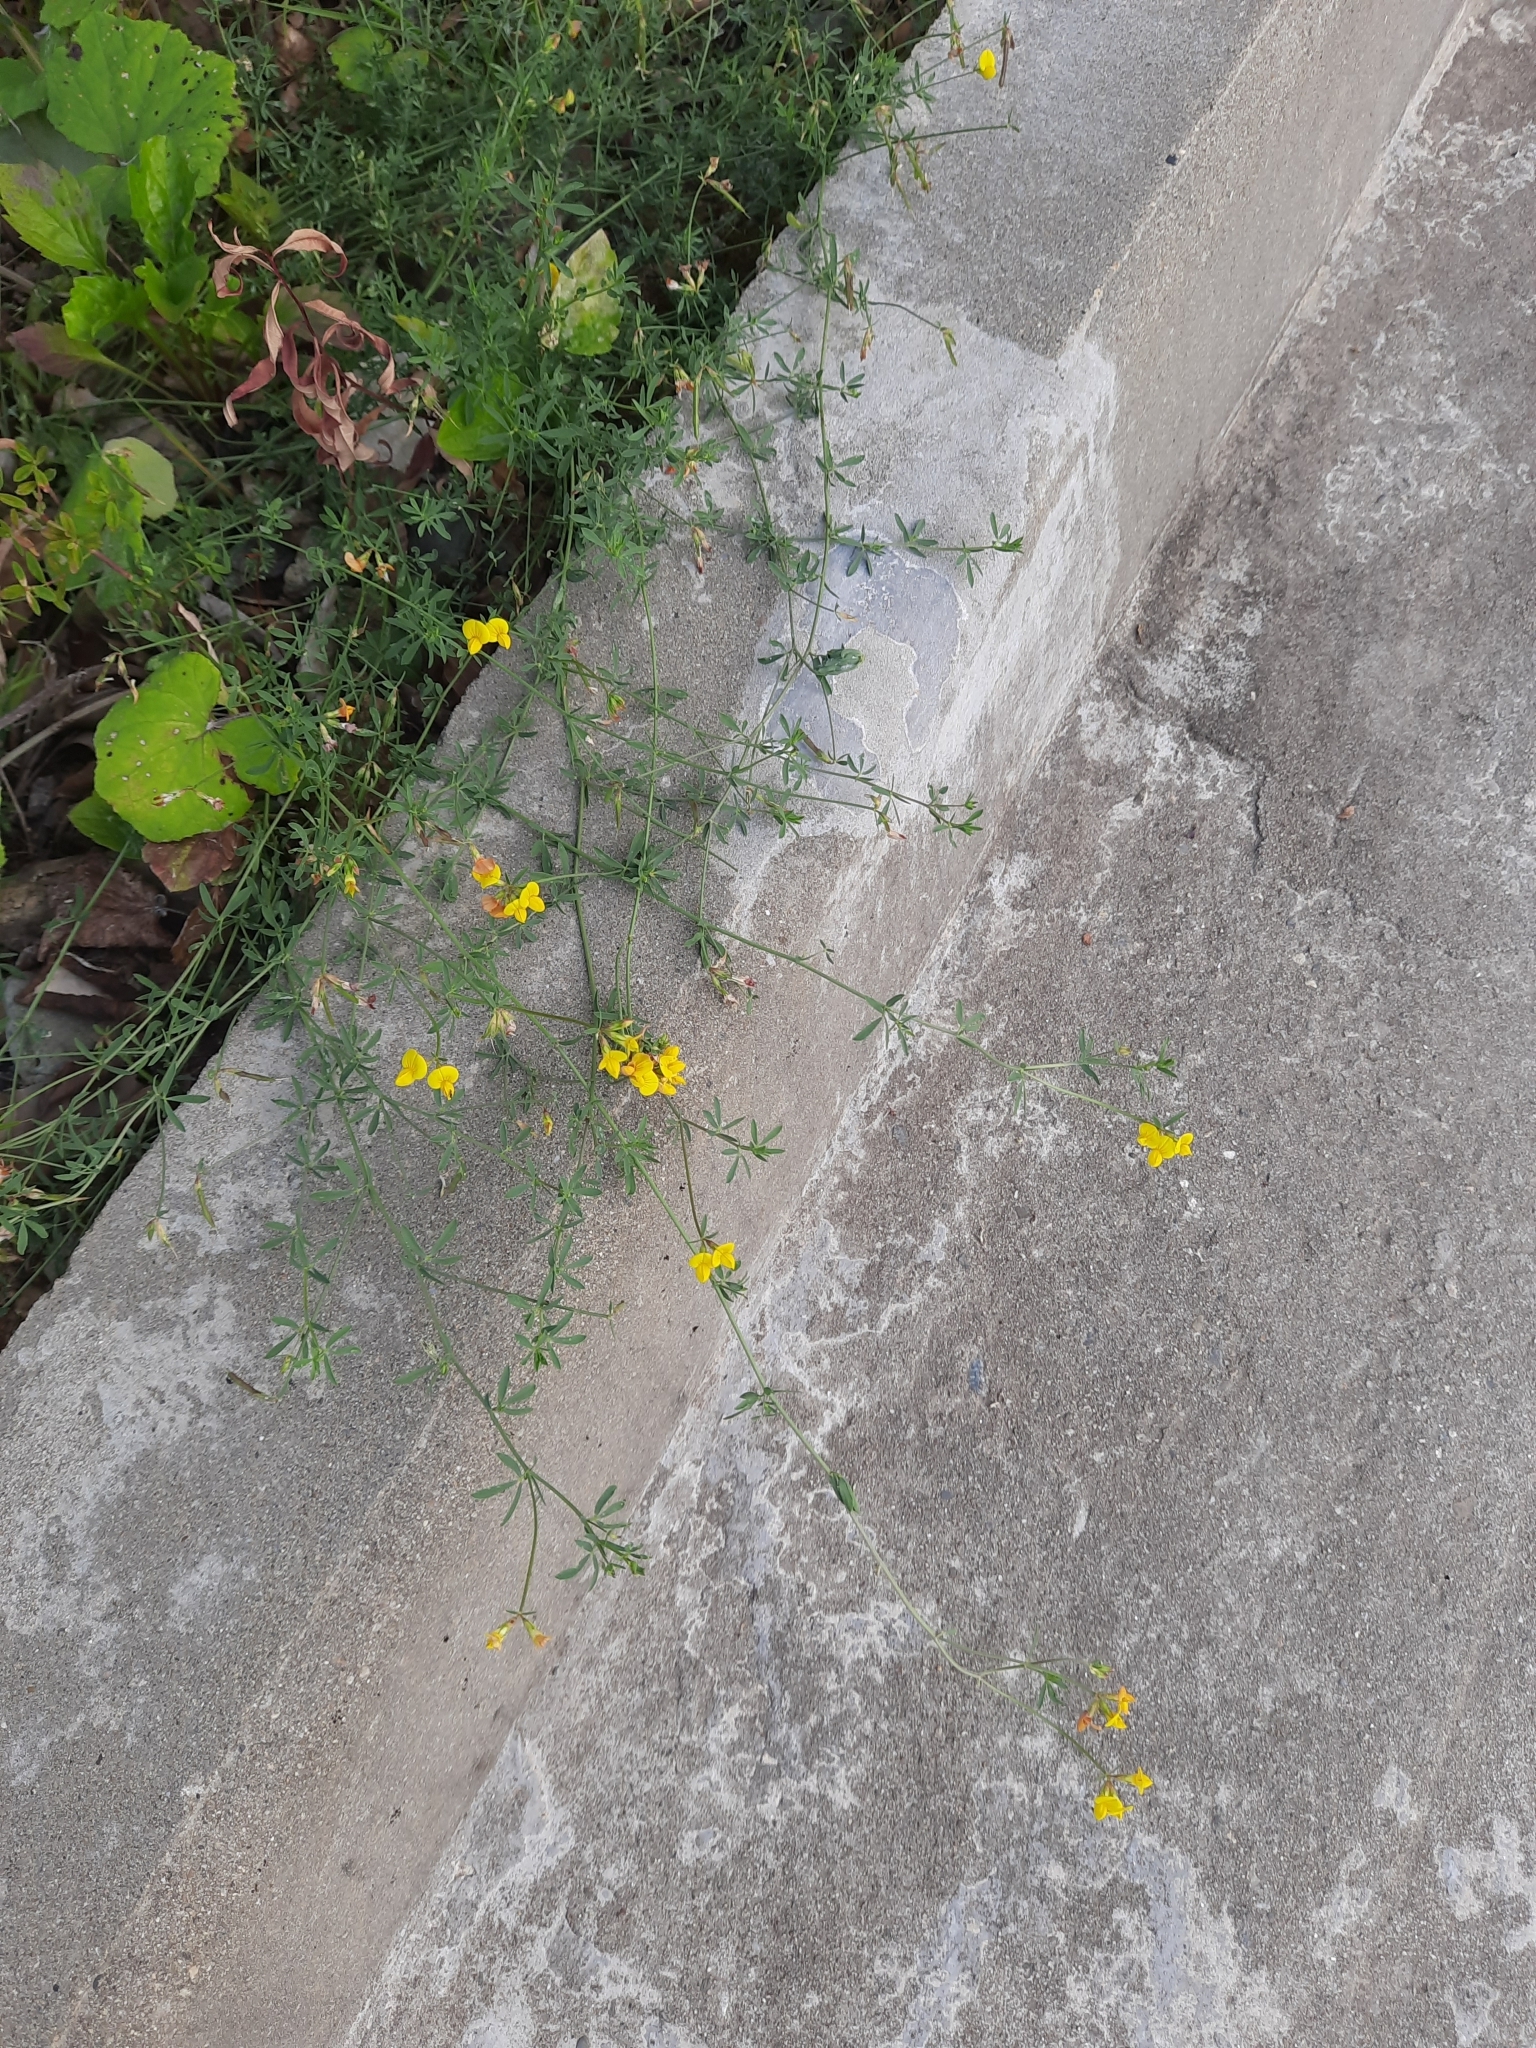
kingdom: Plantae
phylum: Tracheophyta
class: Magnoliopsida
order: Fabales
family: Fabaceae
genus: Lotus
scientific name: Lotus corniculatus
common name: Common bird's-foot-trefoil
